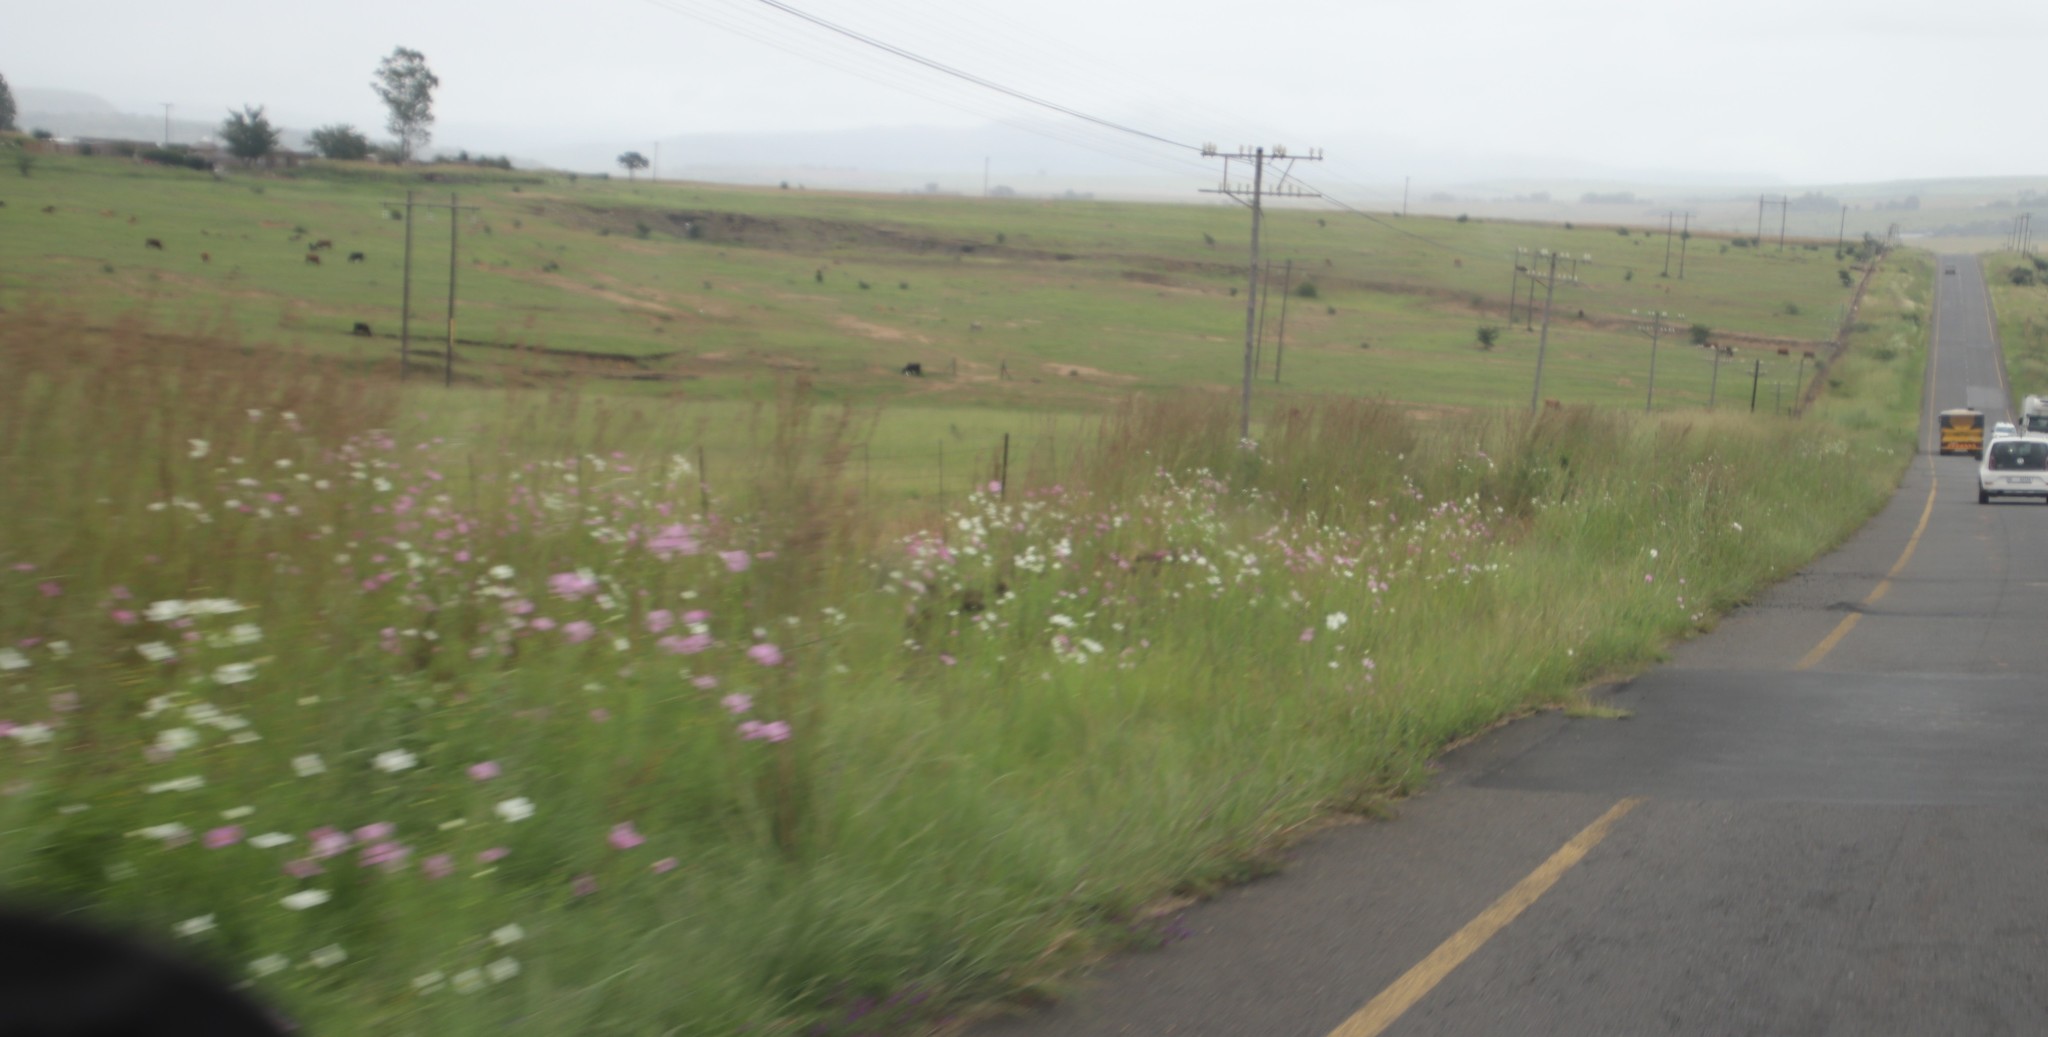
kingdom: Plantae
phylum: Tracheophyta
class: Magnoliopsida
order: Asterales
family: Asteraceae
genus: Cosmos
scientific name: Cosmos bipinnatus
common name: Garden cosmos
